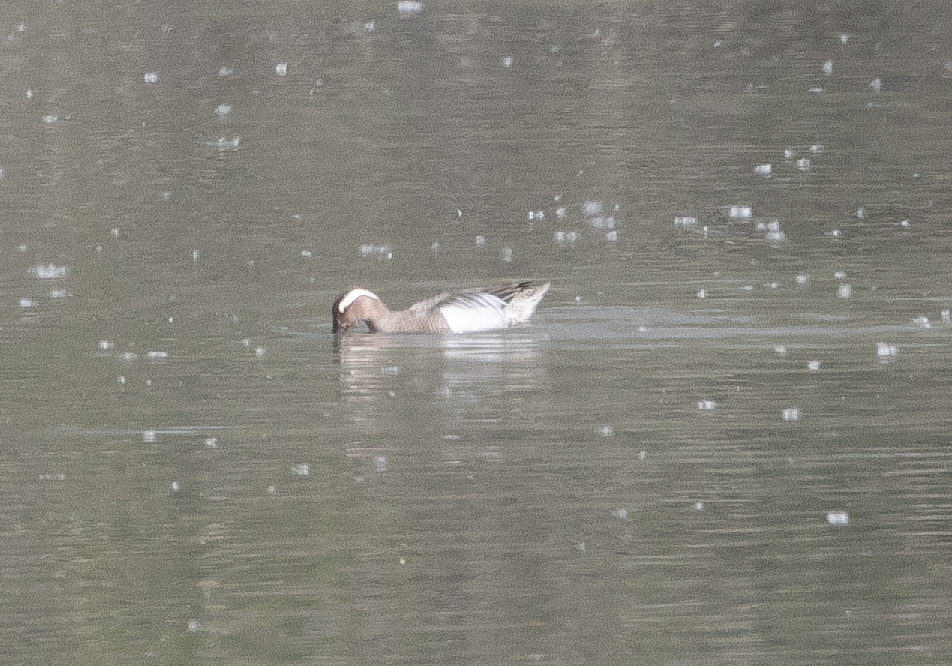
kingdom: Animalia
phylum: Chordata
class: Aves
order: Anseriformes
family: Anatidae
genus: Spatula
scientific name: Spatula querquedula
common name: Garganey
